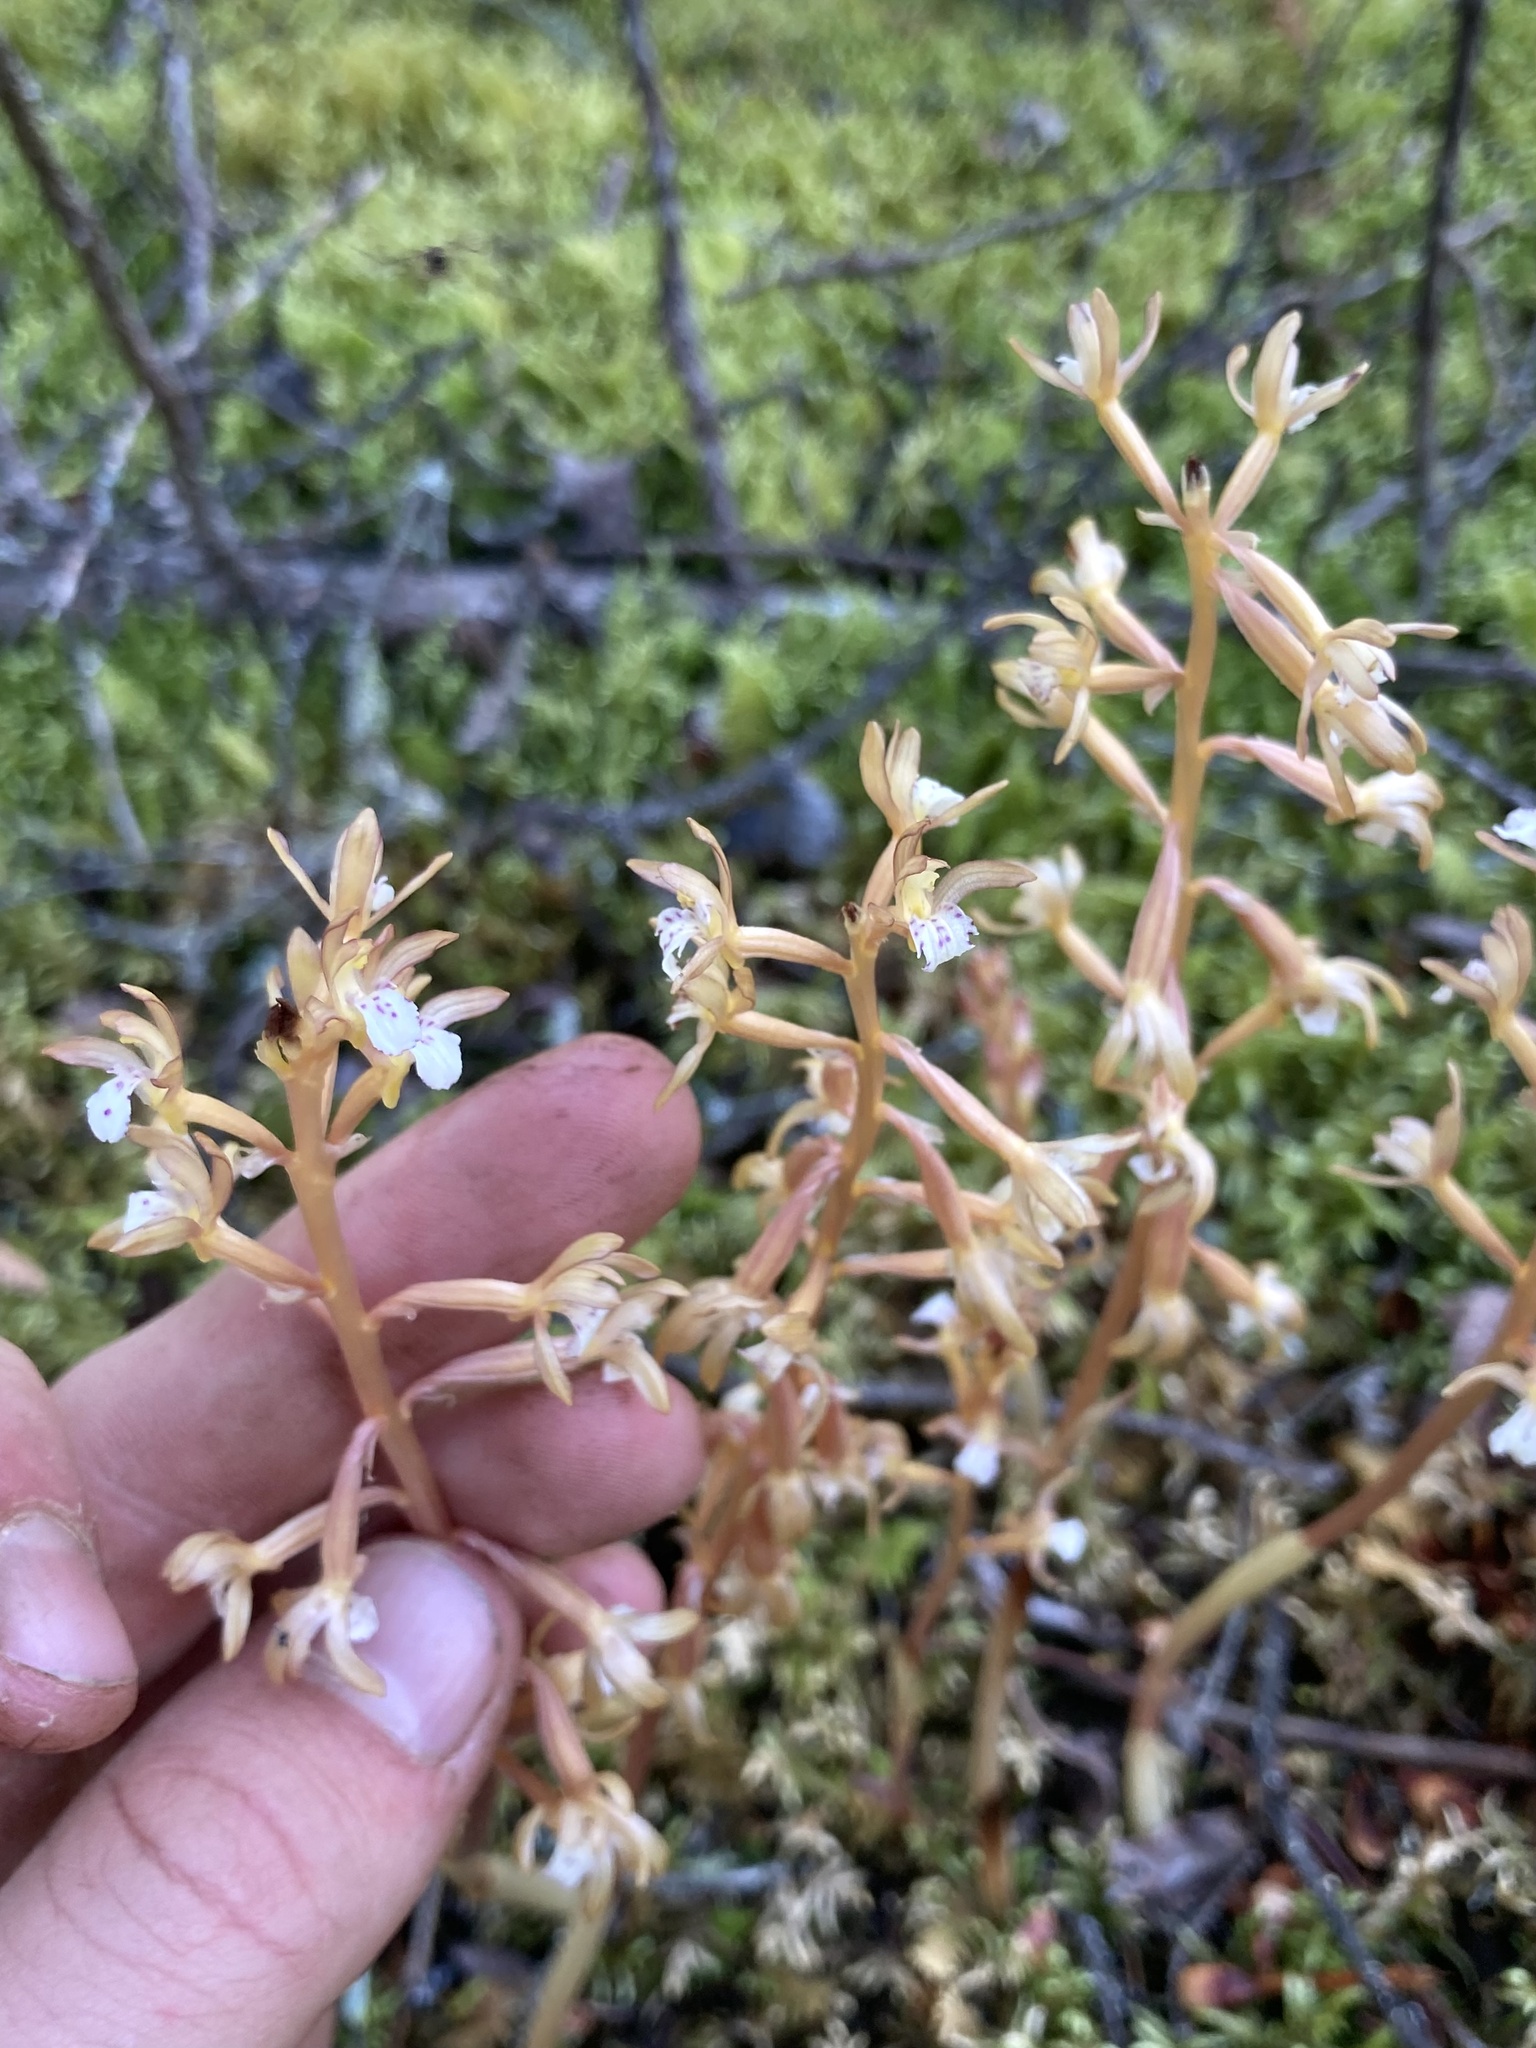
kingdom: Plantae
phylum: Tracheophyta
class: Liliopsida
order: Asparagales
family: Orchidaceae
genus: Corallorhiza
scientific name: Corallorhiza maculata
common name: Spotted coralroot
